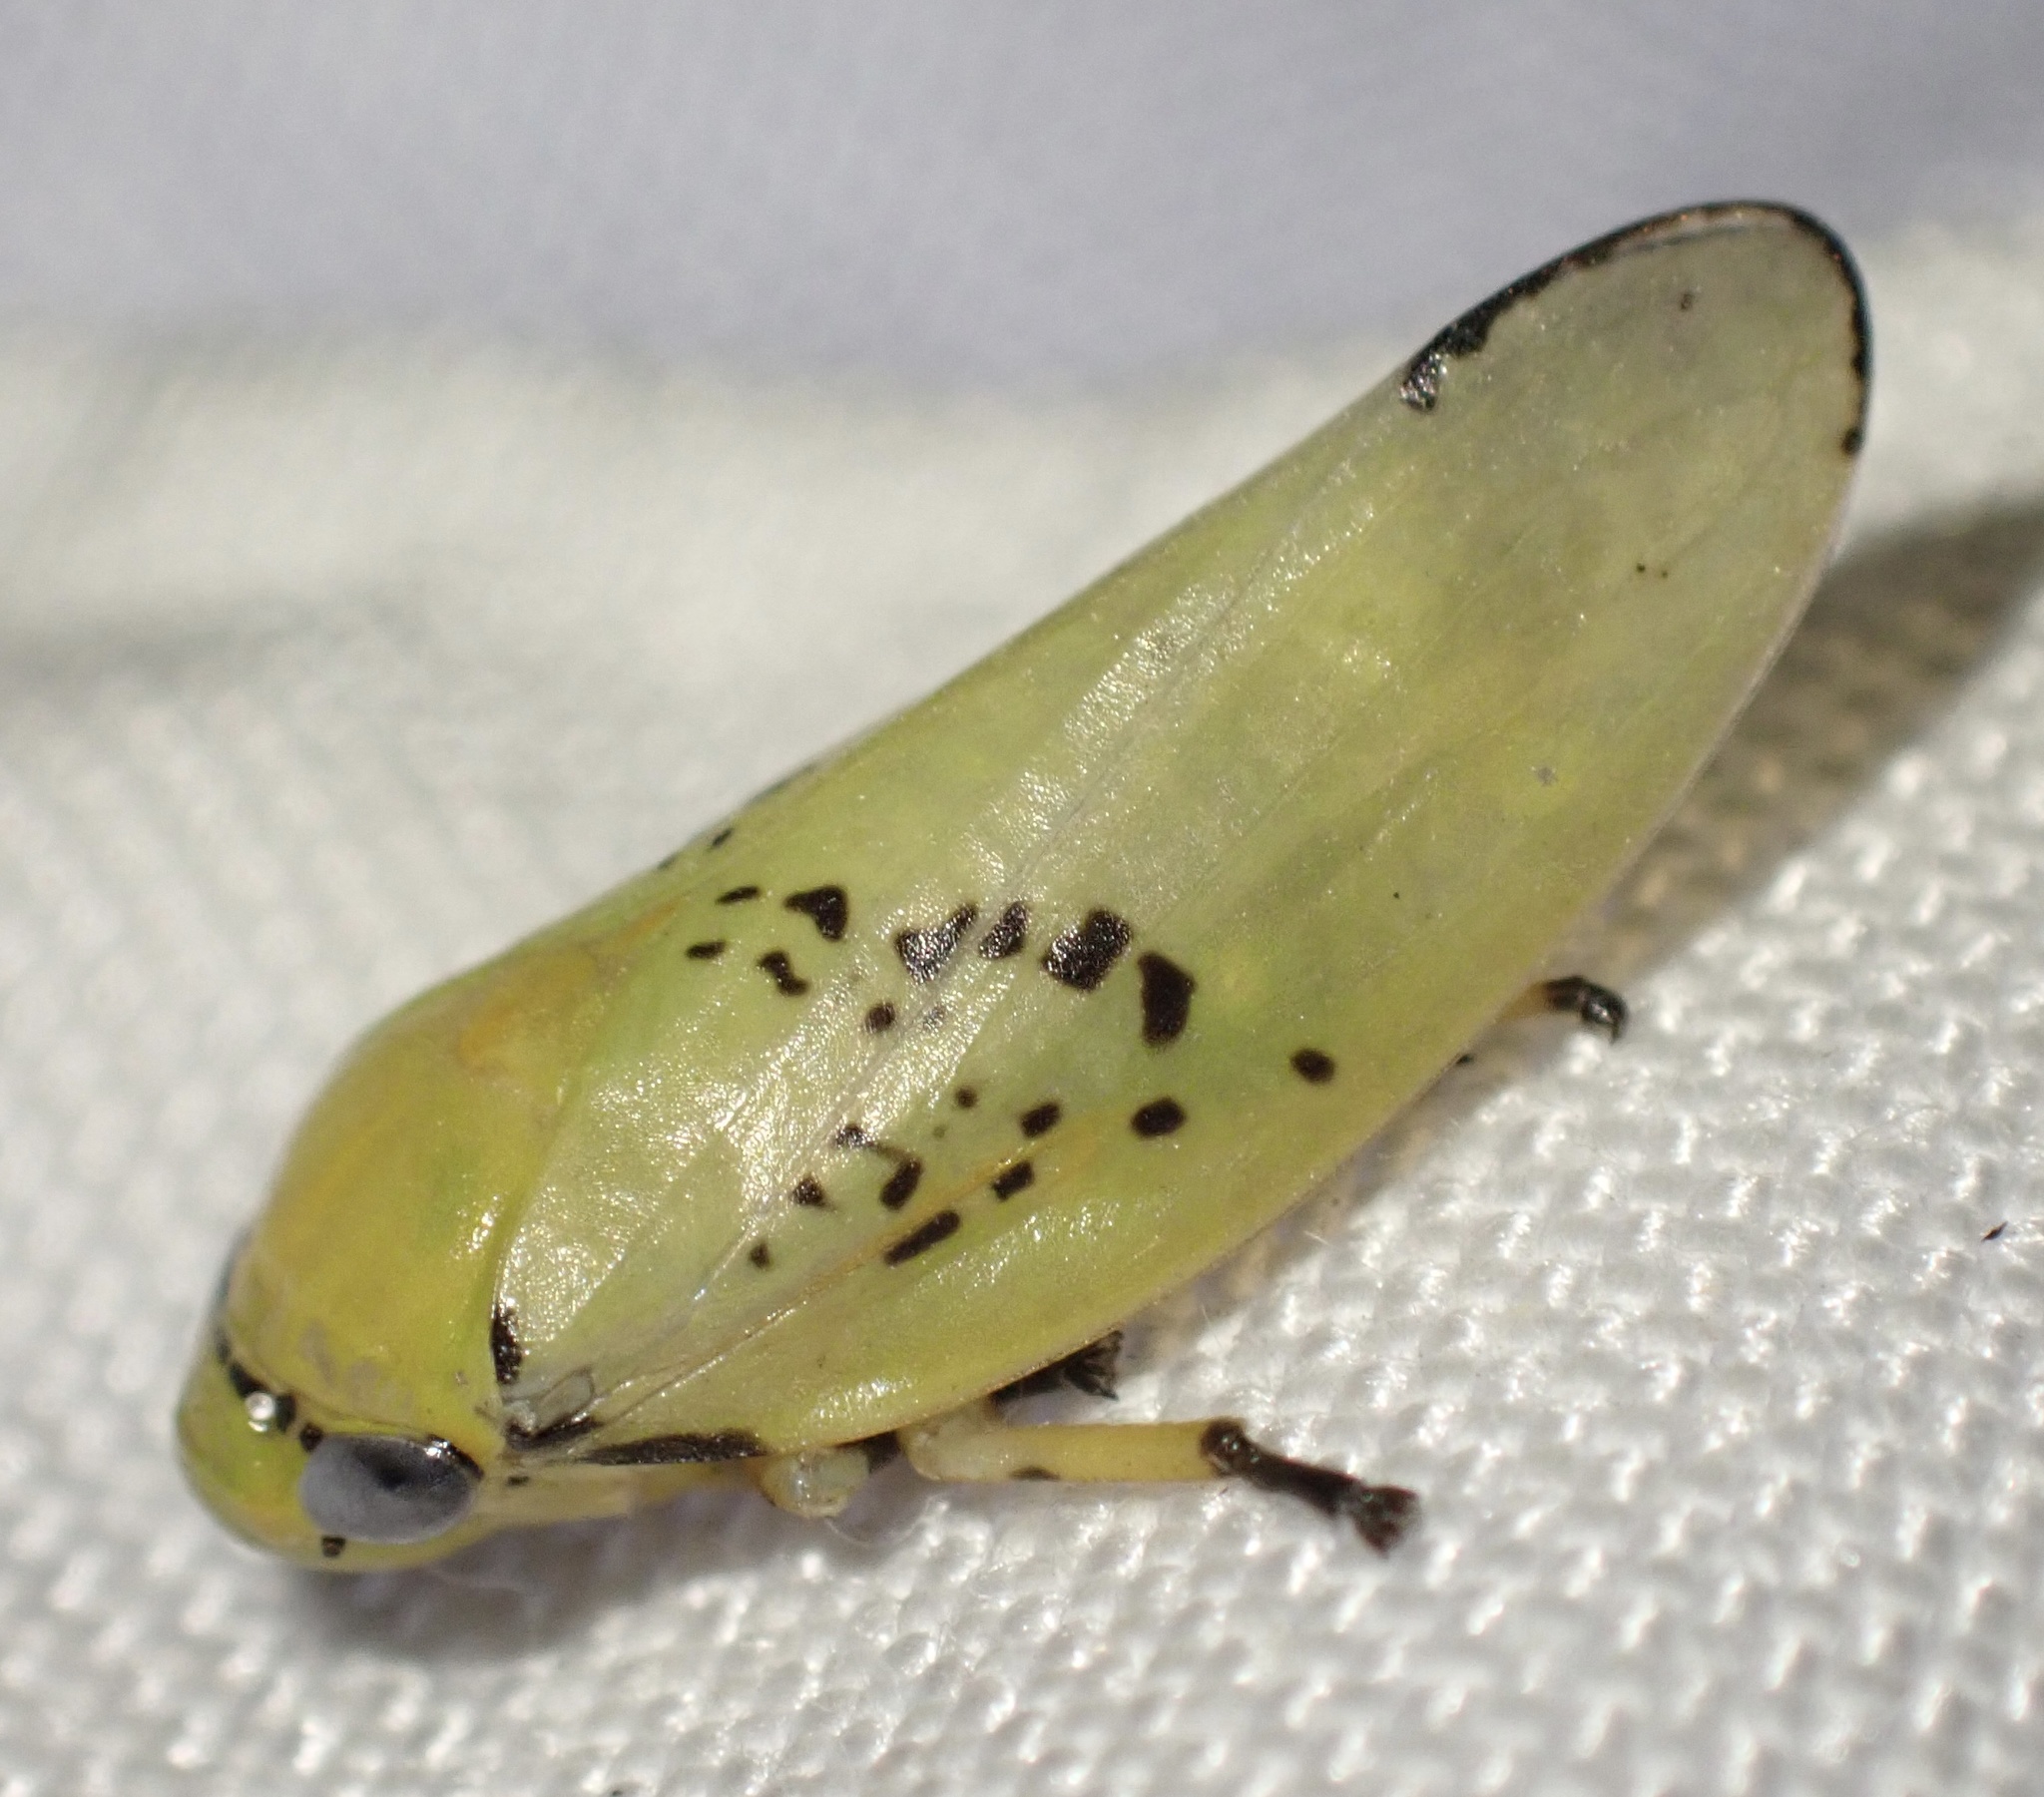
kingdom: Animalia
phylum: Arthropoda
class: Insecta
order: Hemiptera
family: Aphrophoridae
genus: Ptyelus
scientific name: Ptyelus flavescens
